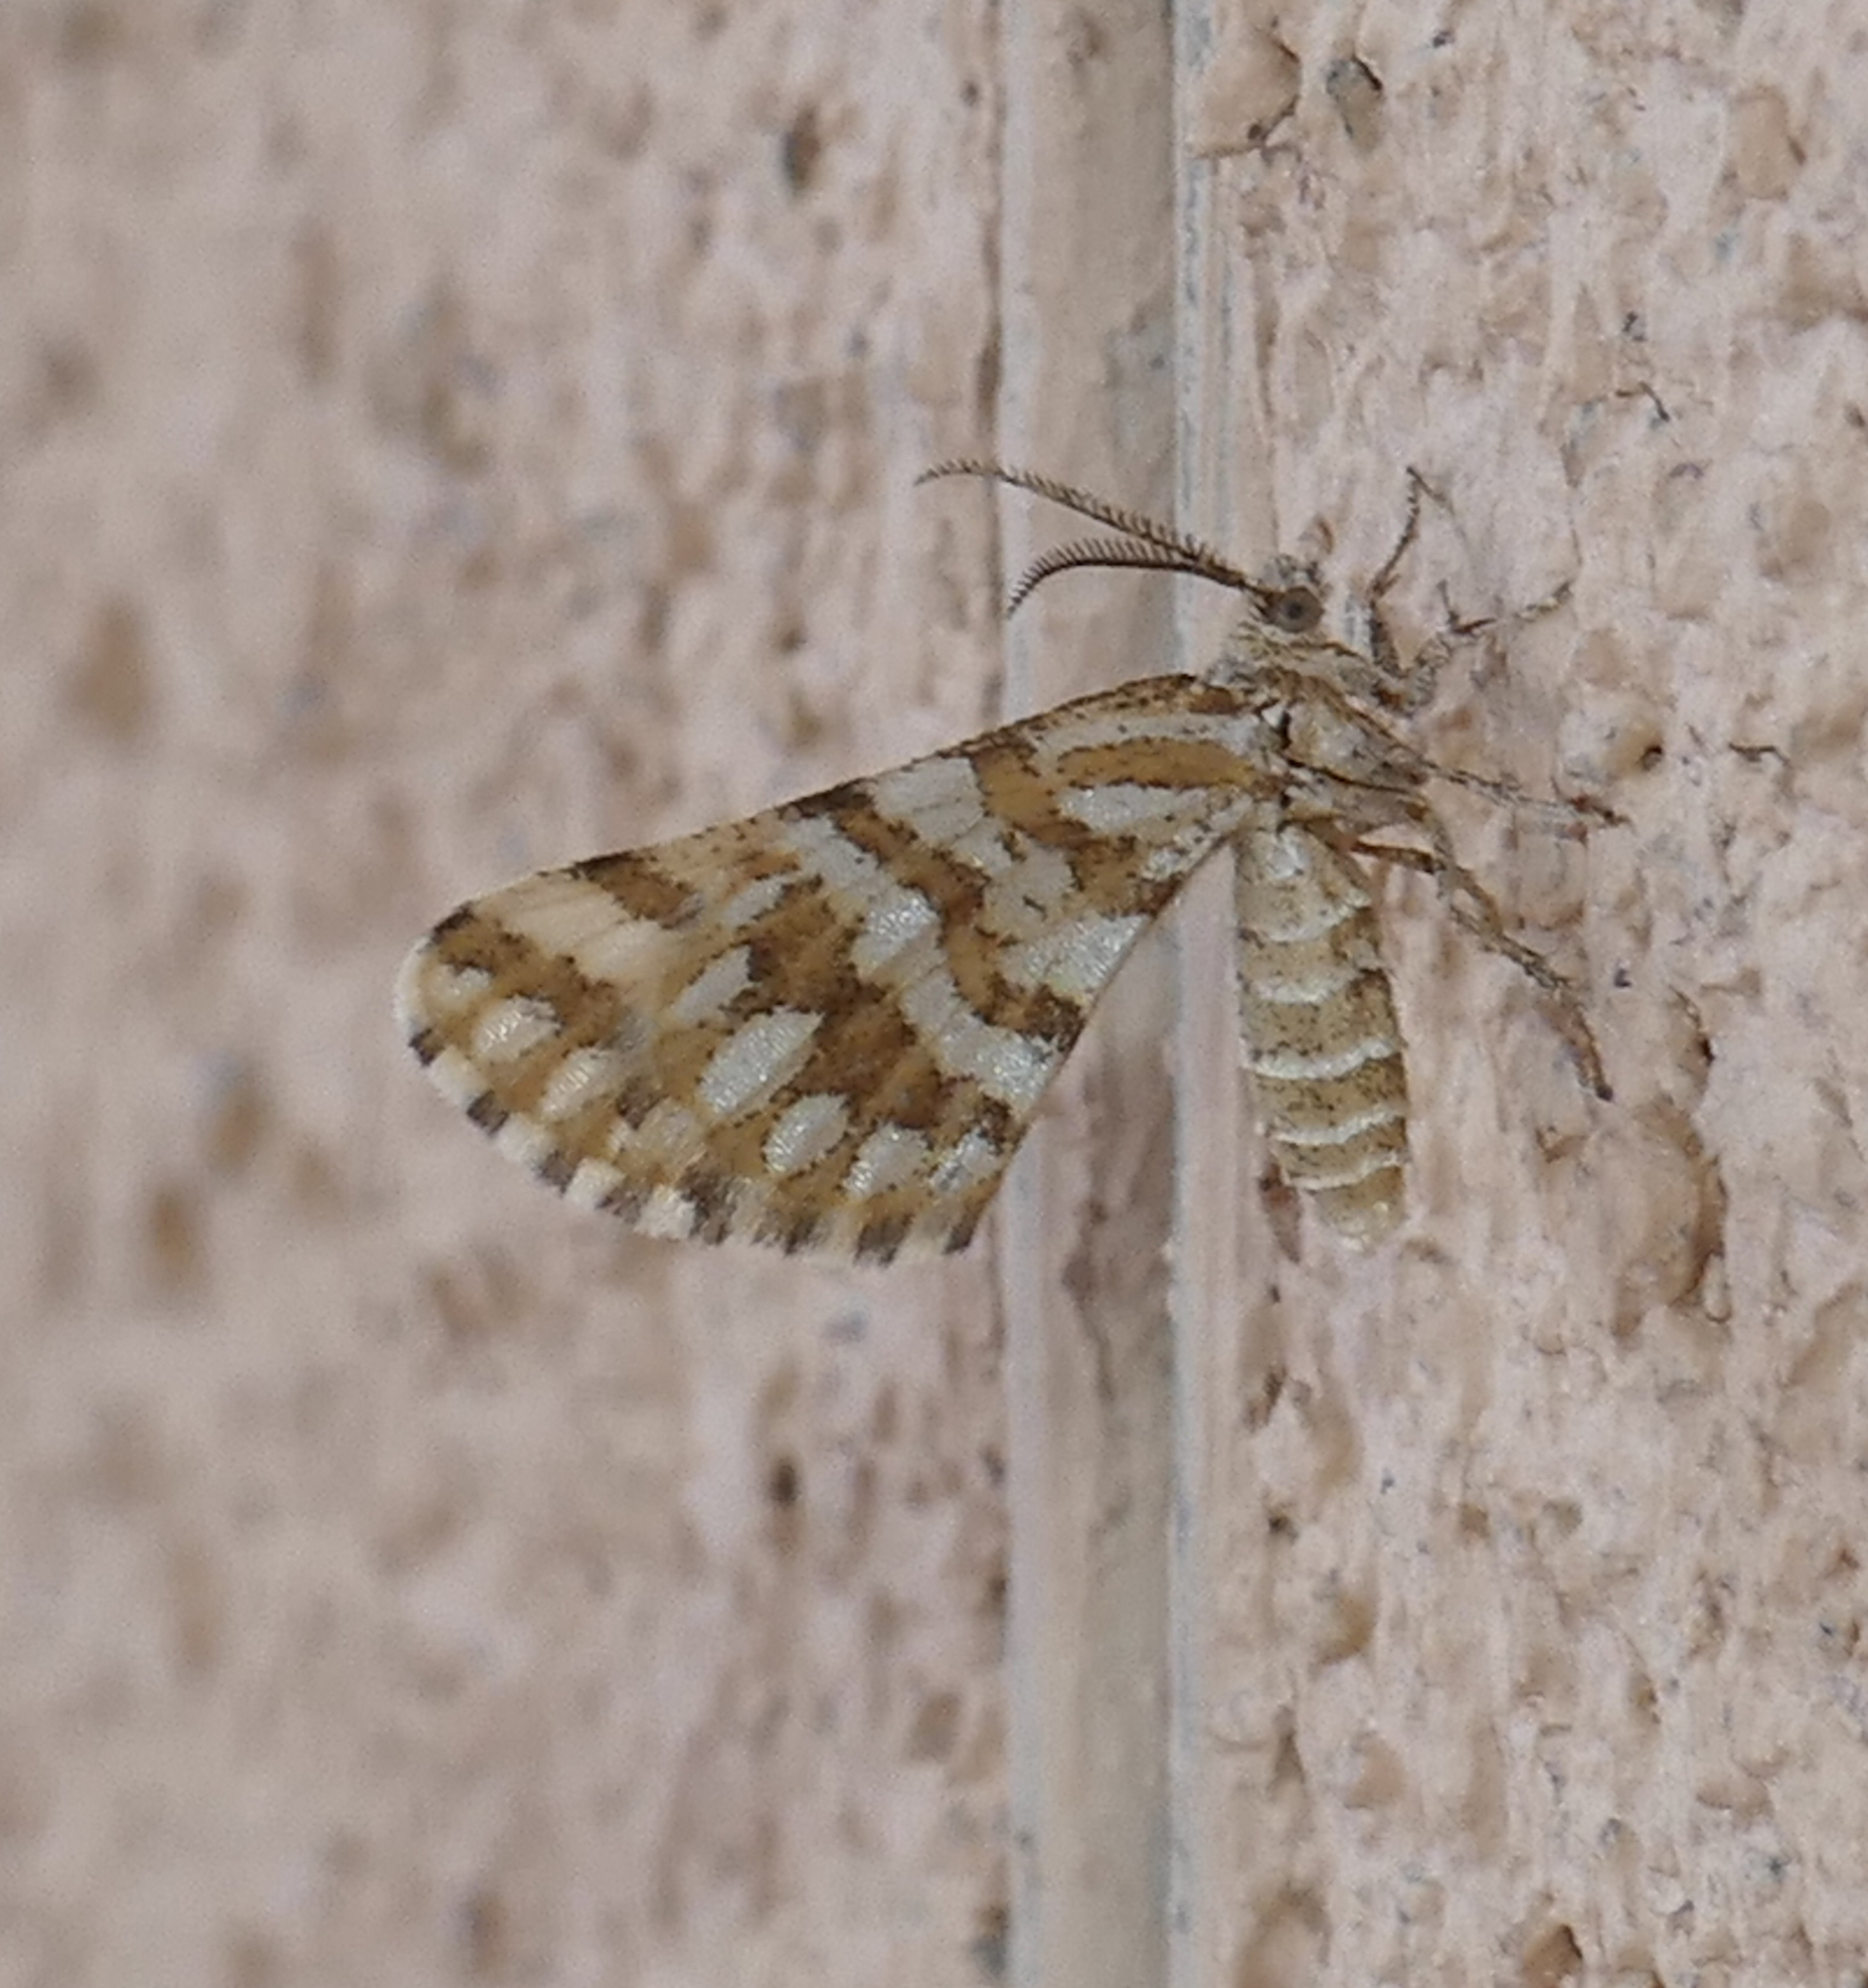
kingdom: Animalia
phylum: Arthropoda
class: Insecta
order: Lepidoptera
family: Geometridae
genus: Narraga
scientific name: Narraga fimetaria
